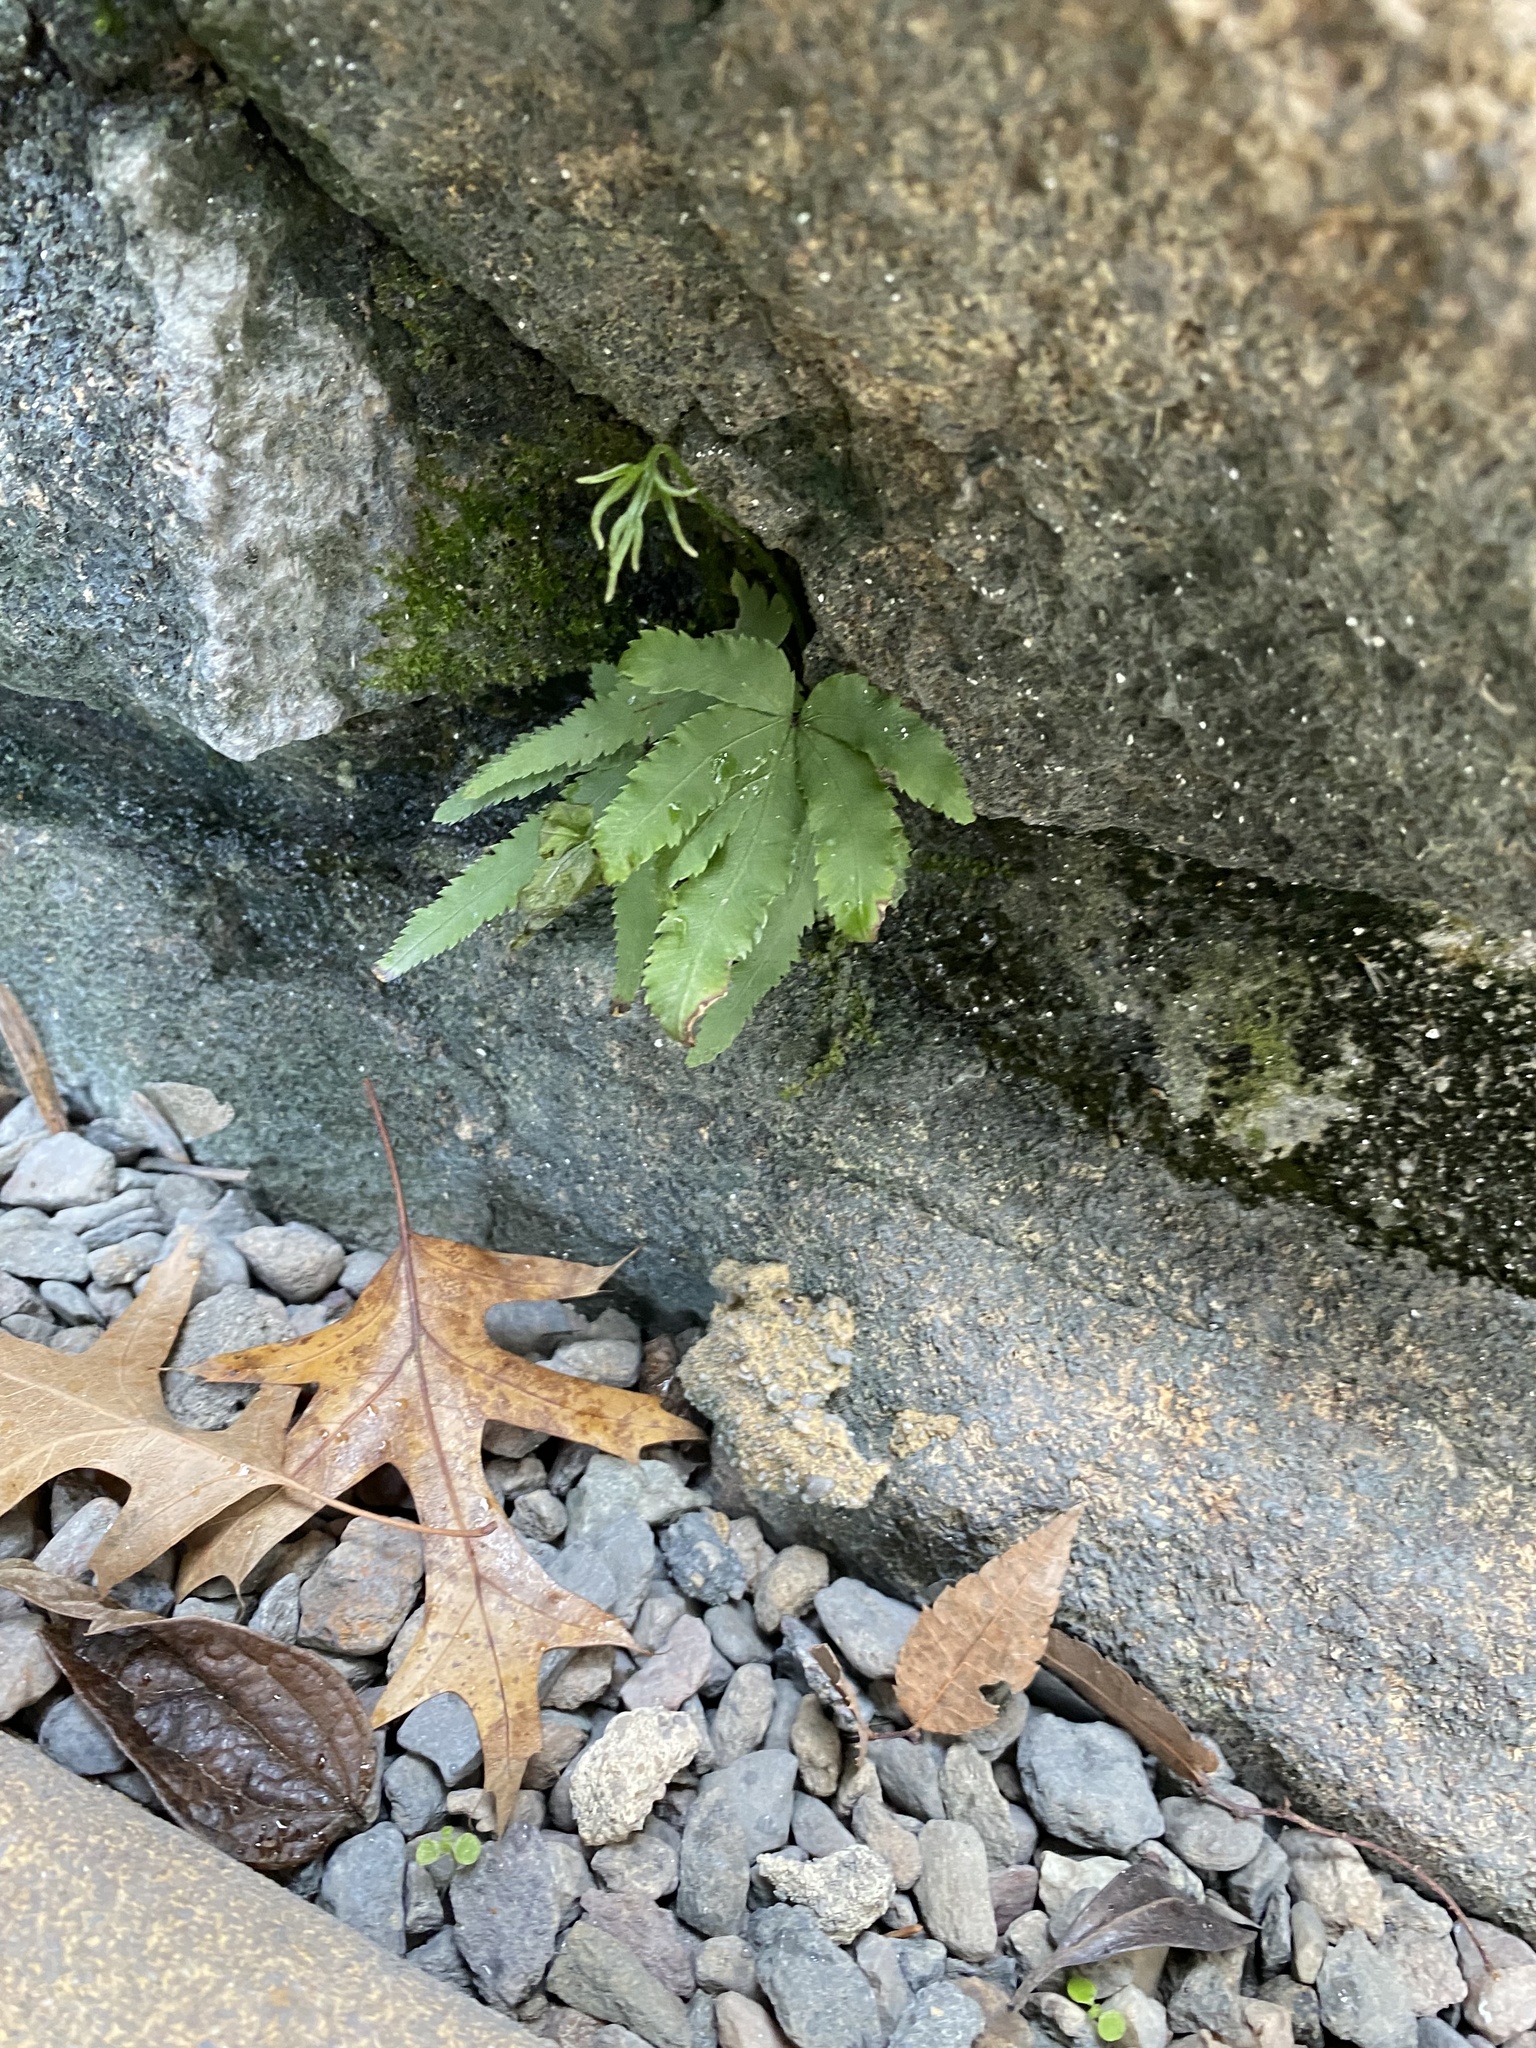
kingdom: Plantae
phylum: Tracheophyta
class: Polypodiopsida
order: Polypodiales
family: Pteridaceae
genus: Pteris
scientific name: Pteris multifida
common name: Spider brake
